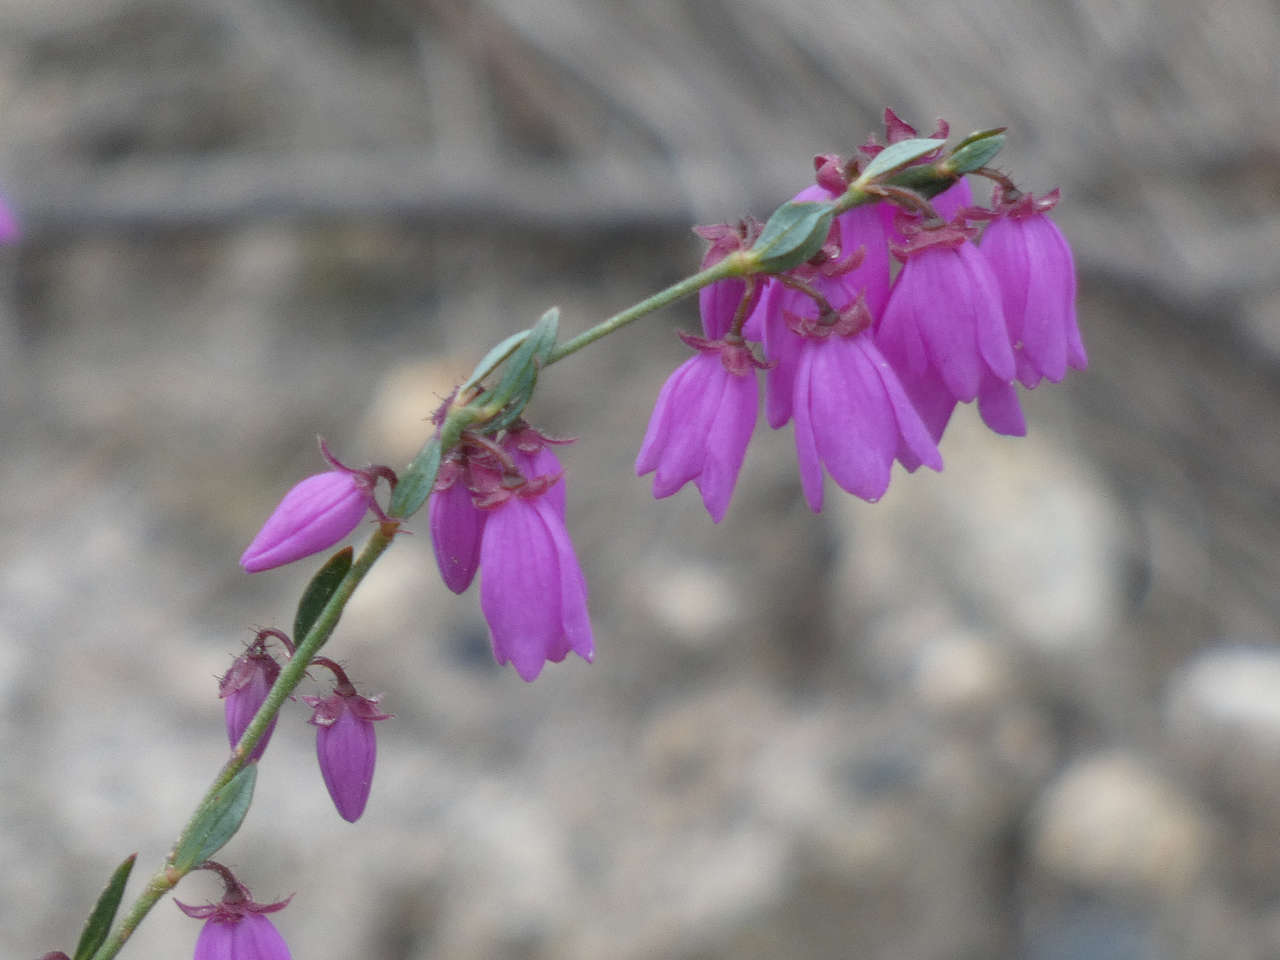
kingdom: Plantae
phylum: Tracheophyta
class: Magnoliopsida
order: Oxalidales
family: Elaeocarpaceae
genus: Tetratheca
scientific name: Tetratheca ciliata
